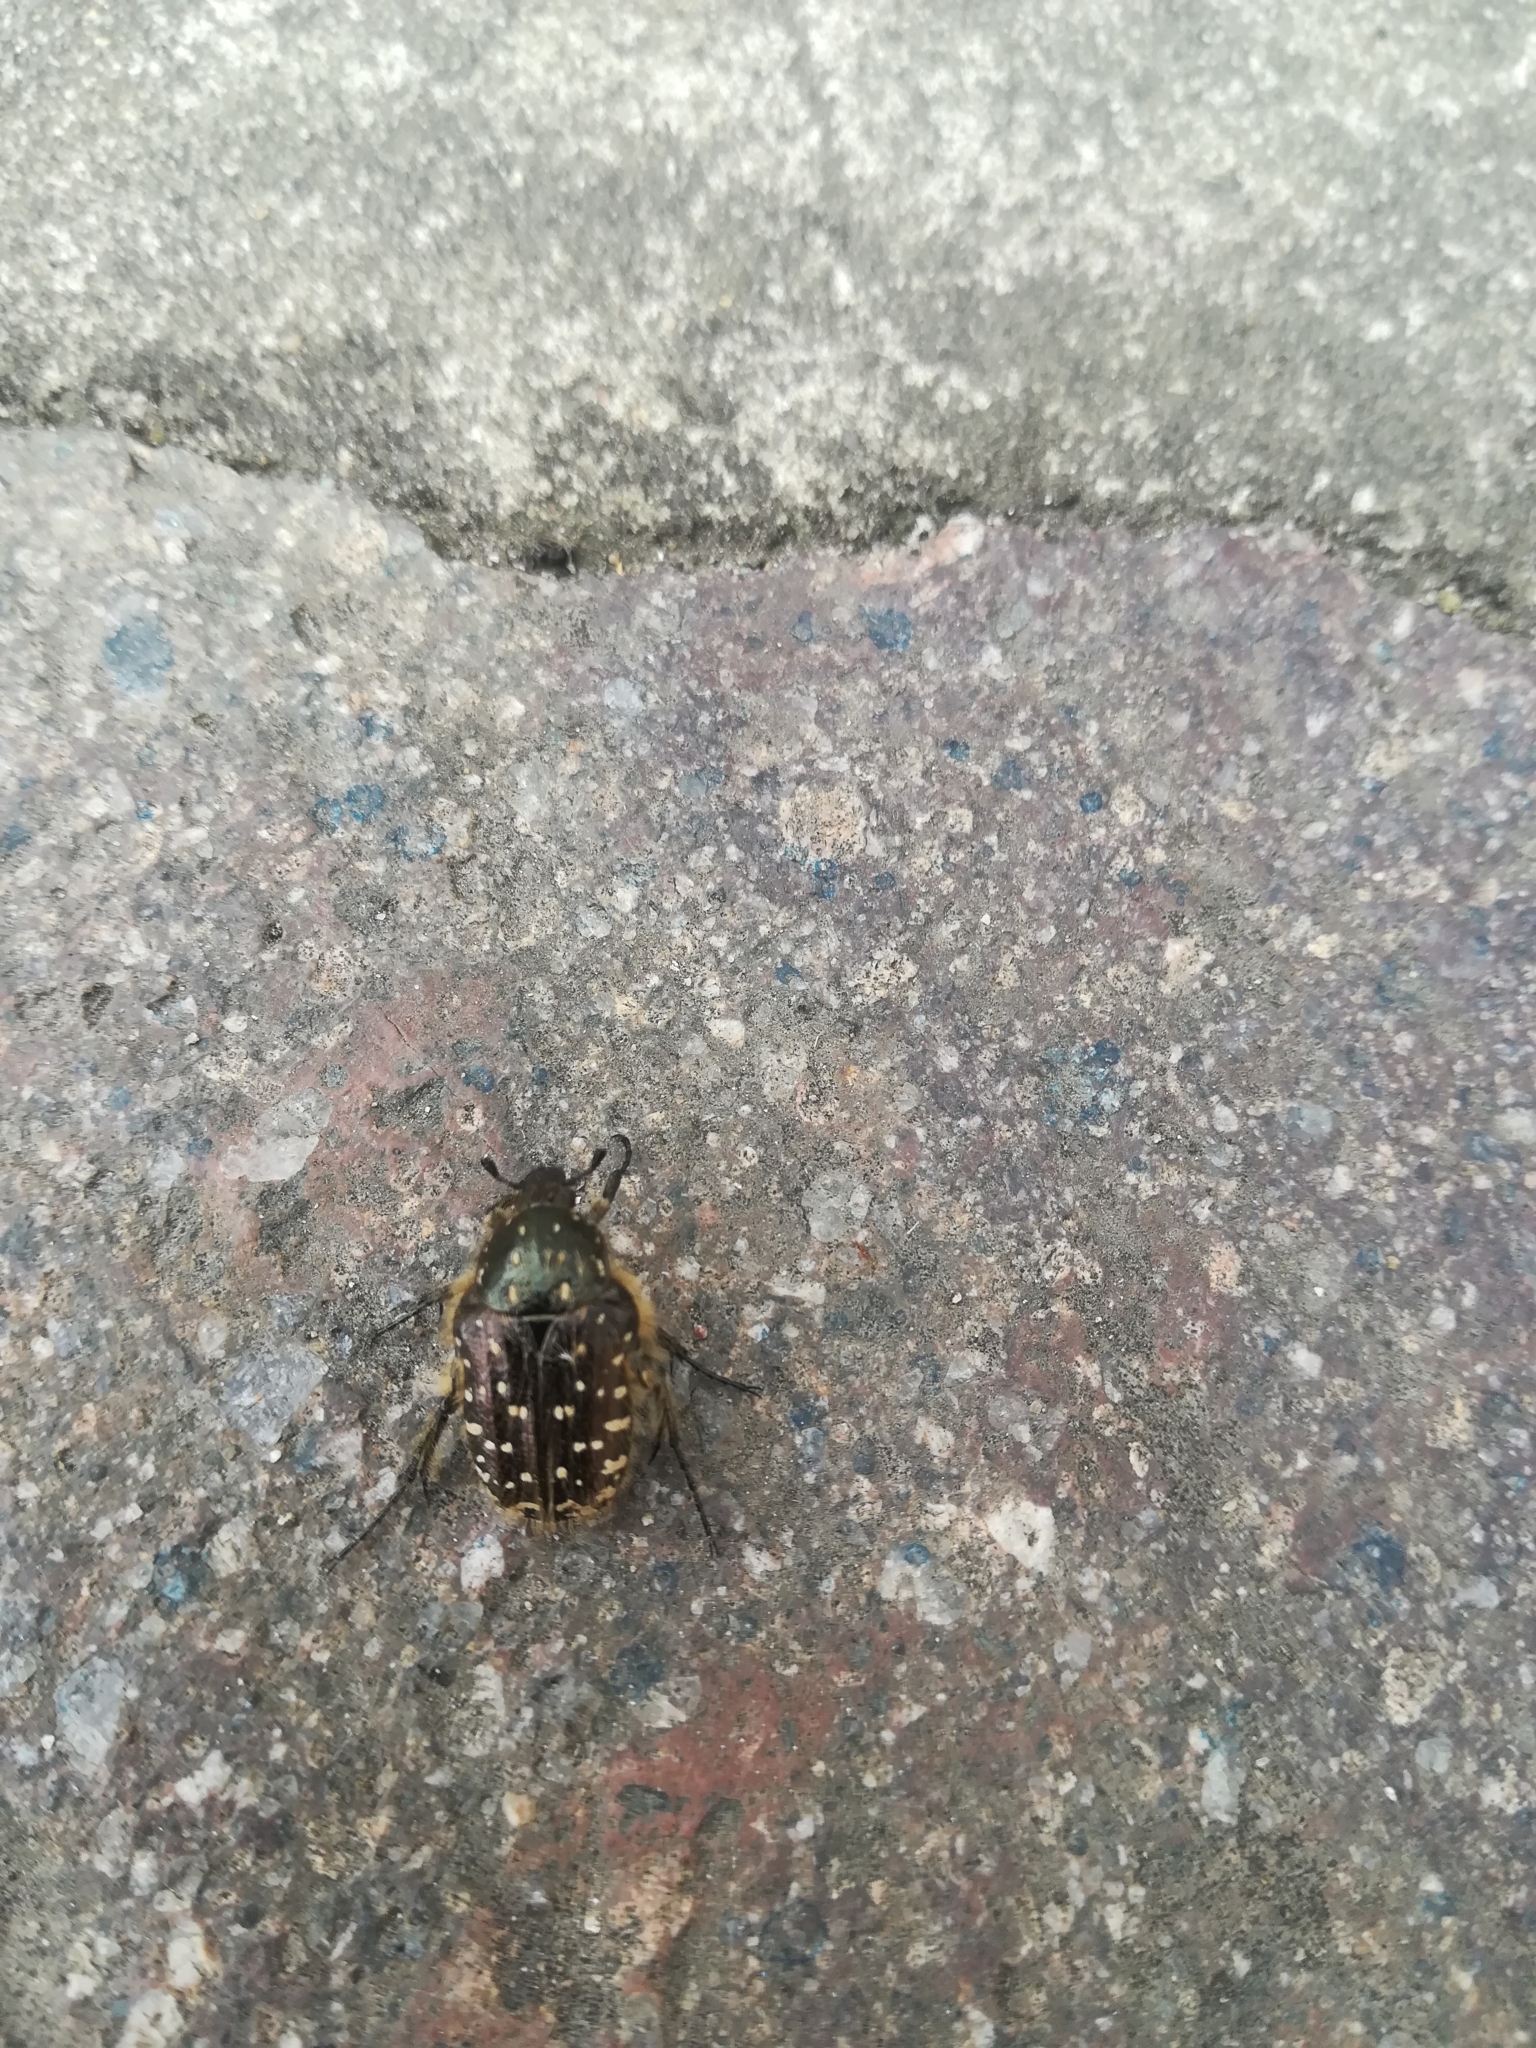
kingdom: Animalia
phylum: Arthropoda
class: Insecta
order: Coleoptera
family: Scarabaeidae
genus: Oxythyrea
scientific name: Oxythyrea funesta
